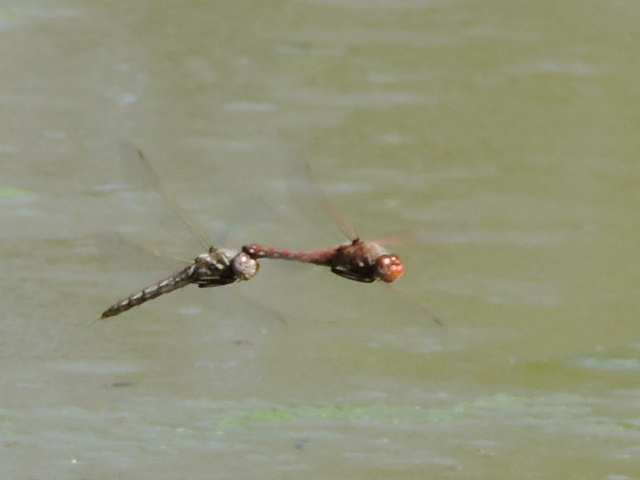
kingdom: Animalia
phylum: Arthropoda
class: Insecta
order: Odonata
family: Libellulidae
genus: Sympetrum
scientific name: Sympetrum corruptum
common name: Variegated meadowhawk
